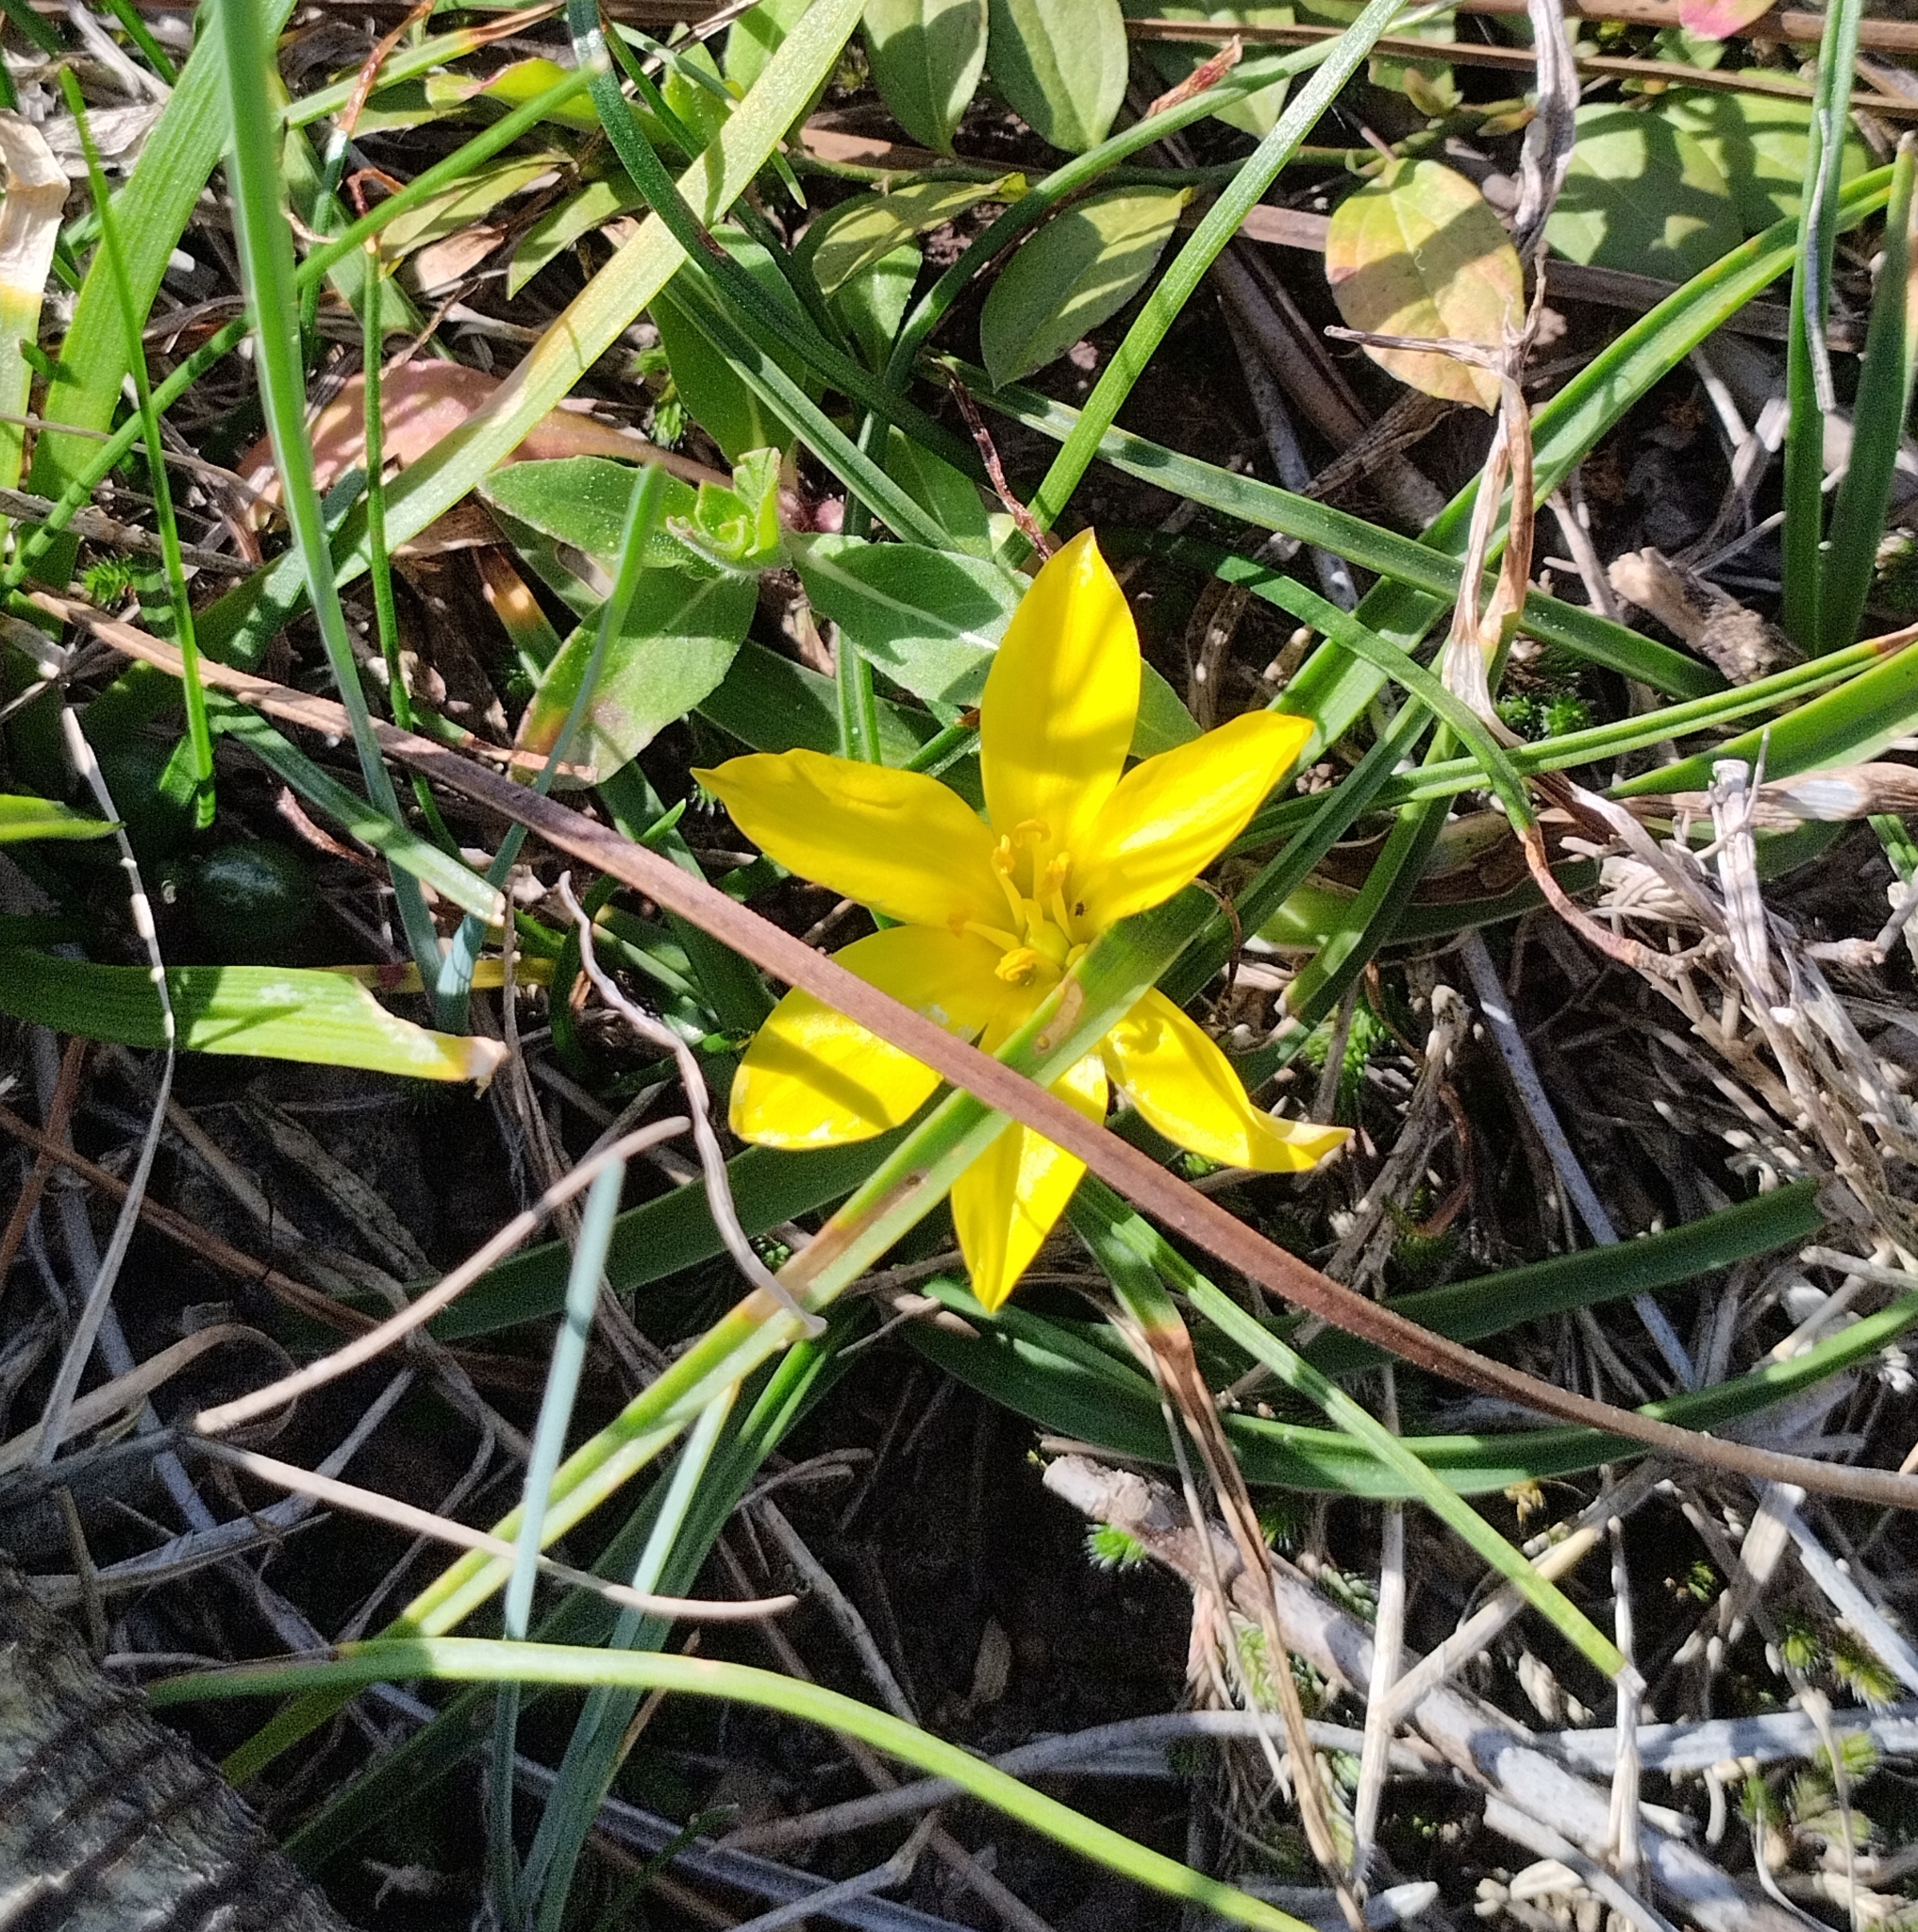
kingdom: Plantae
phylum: Tracheophyta
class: Liliopsida
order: Asparagales
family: Amaryllidaceae
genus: Nothoscordum
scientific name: Nothoscordum felipponei
